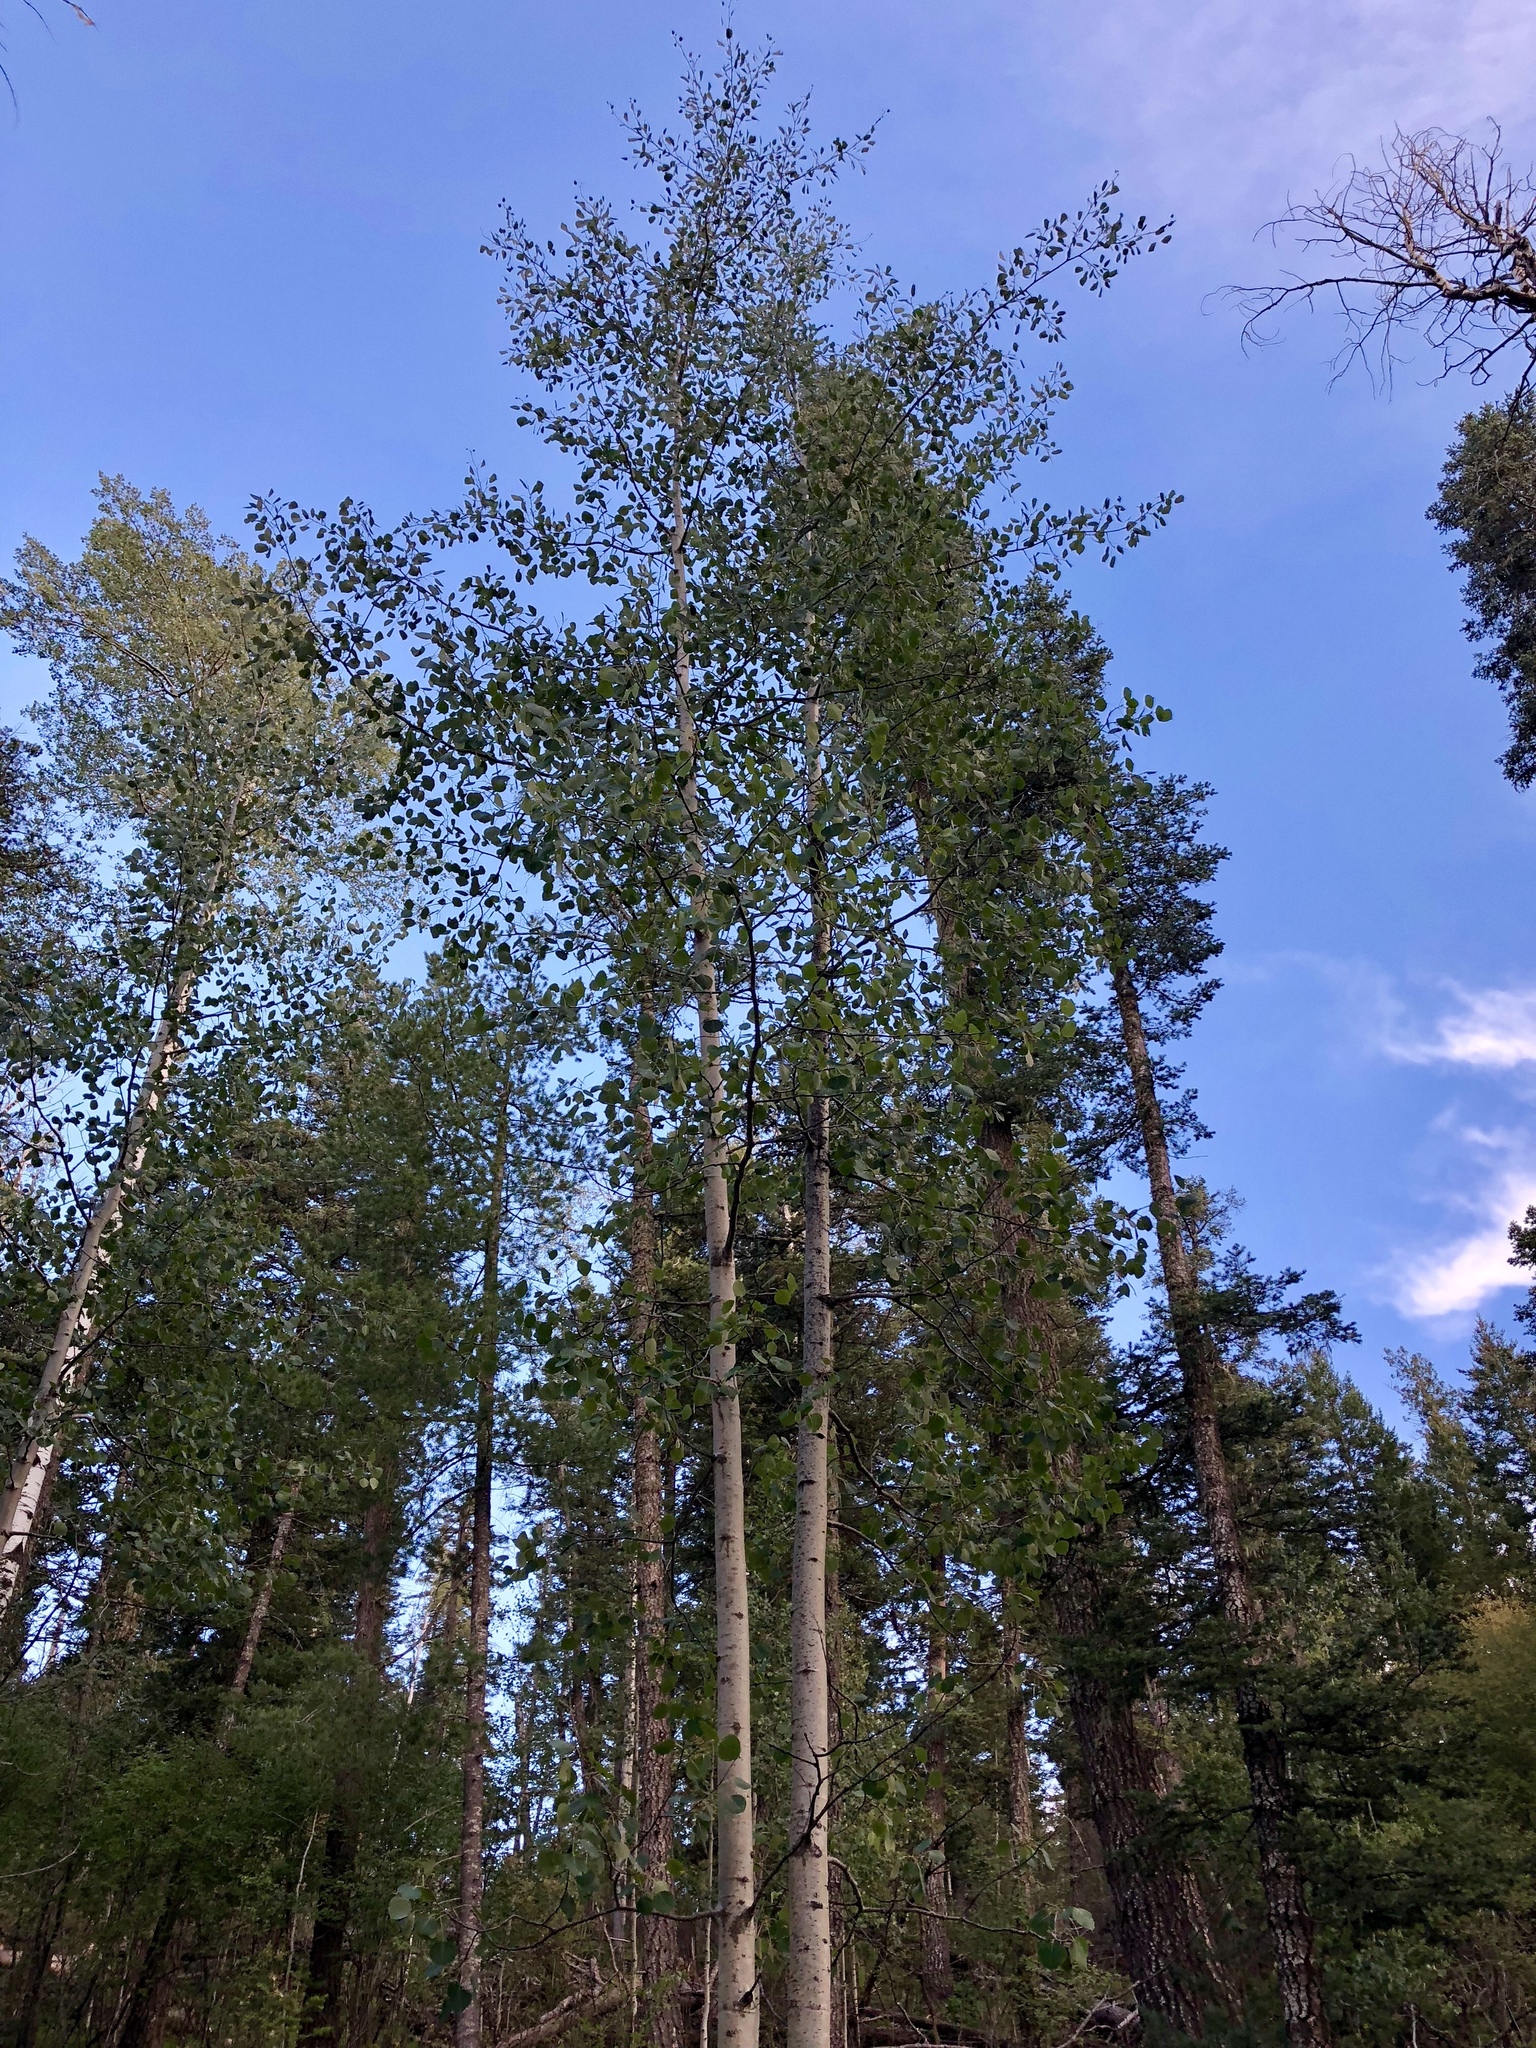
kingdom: Plantae
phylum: Tracheophyta
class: Magnoliopsida
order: Malpighiales
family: Salicaceae
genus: Populus
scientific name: Populus tremuloides
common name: Quaking aspen
